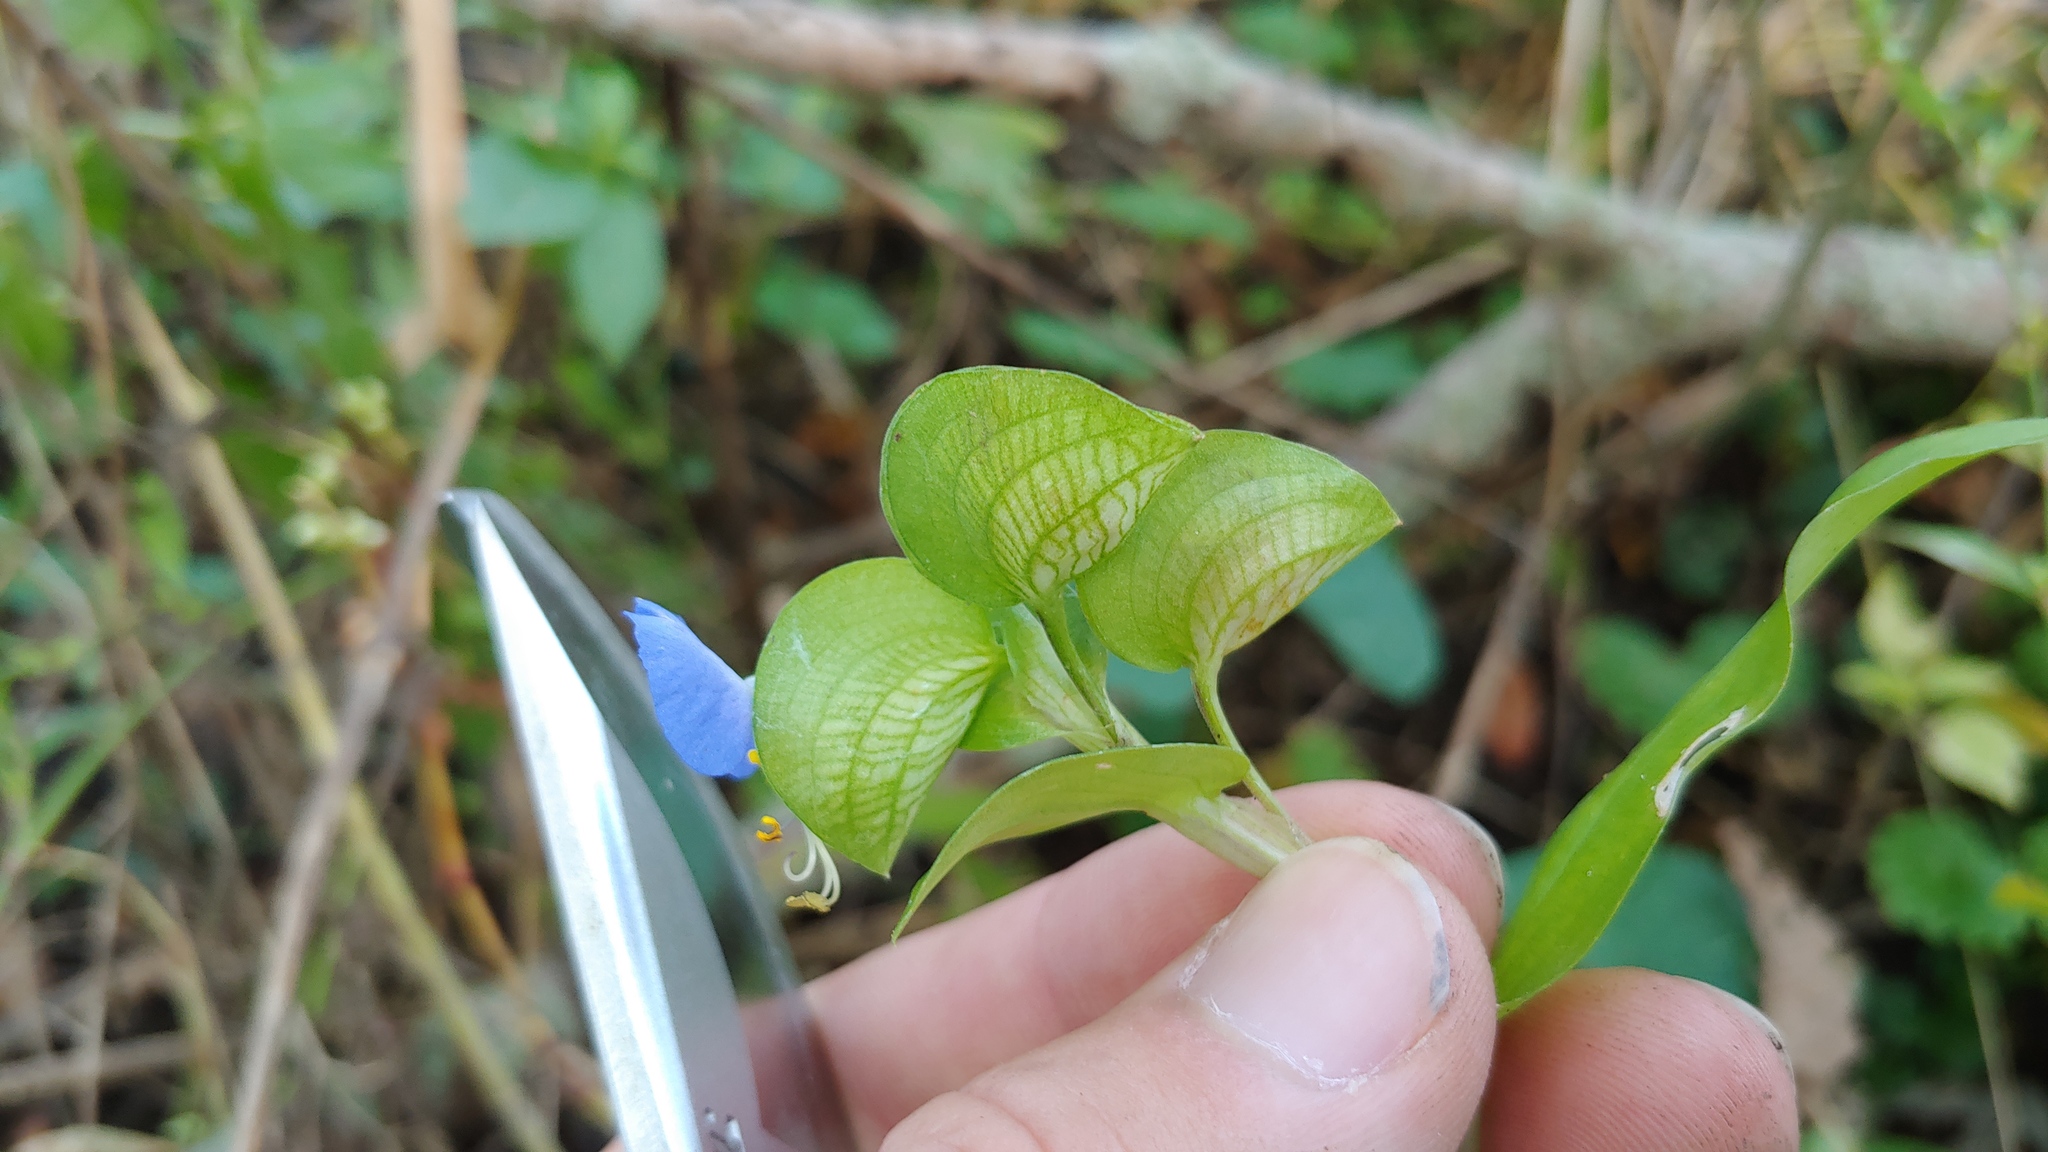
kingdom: Plantae
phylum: Tracheophyta
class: Liliopsida
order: Commelinales
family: Commelinaceae
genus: Commelina
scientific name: Commelina communis
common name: Asiatic dayflower
